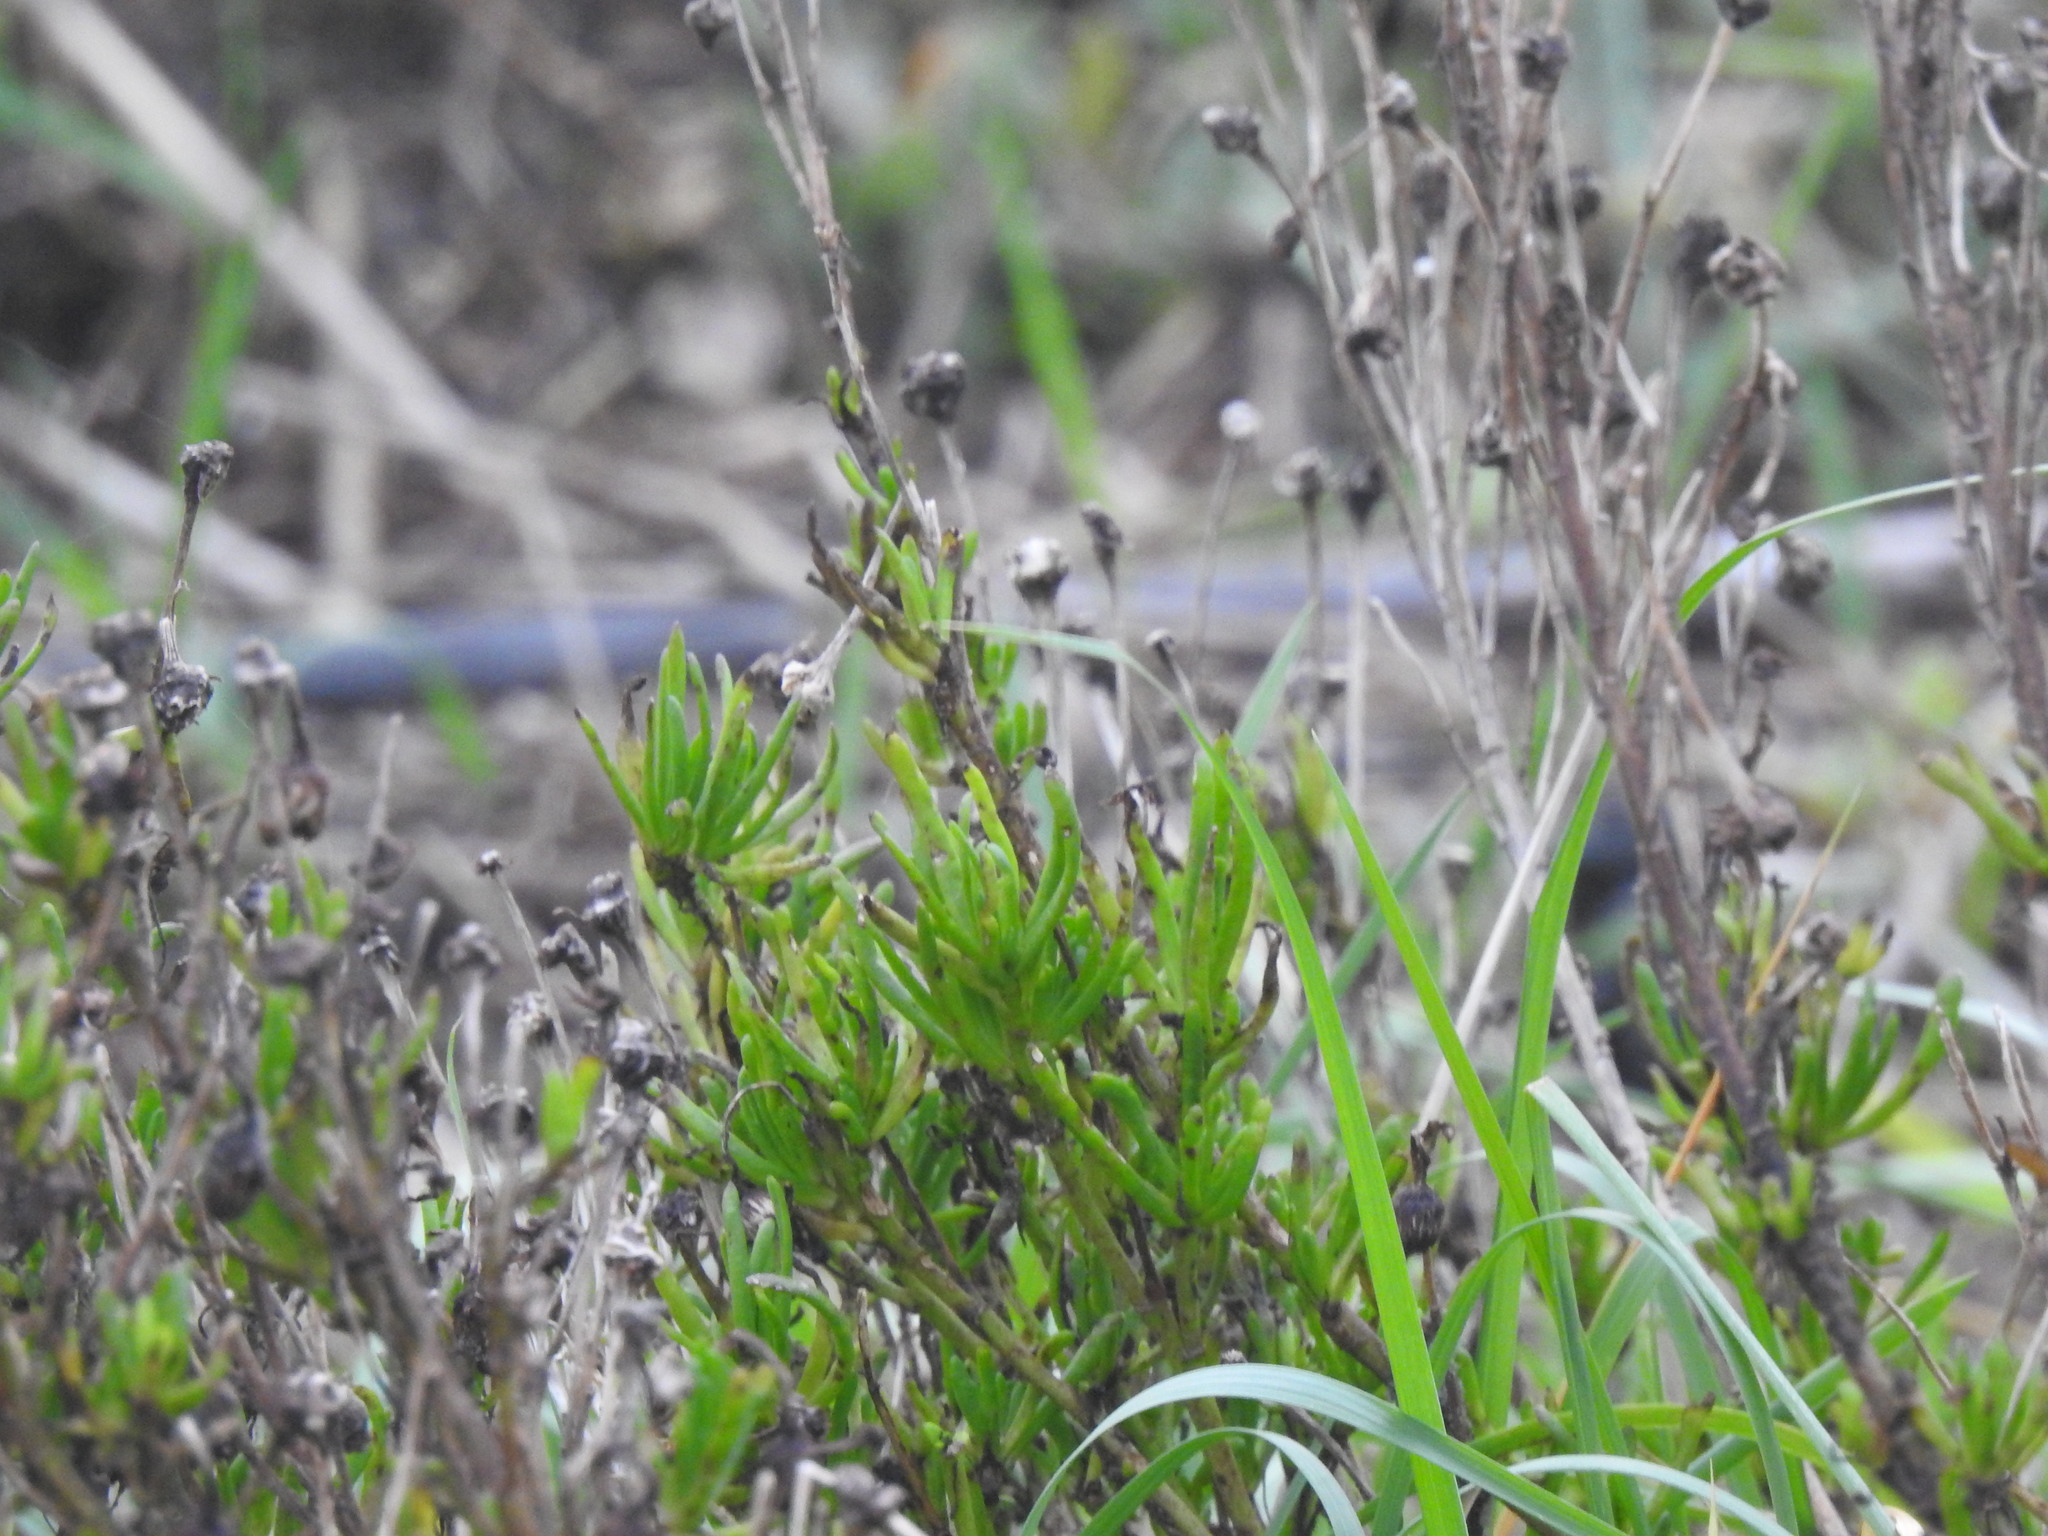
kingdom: Plantae
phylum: Tracheophyta
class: Magnoliopsida
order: Asterales
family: Asteraceae
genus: Limbarda
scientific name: Limbarda crithmoides
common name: Golden samphire
